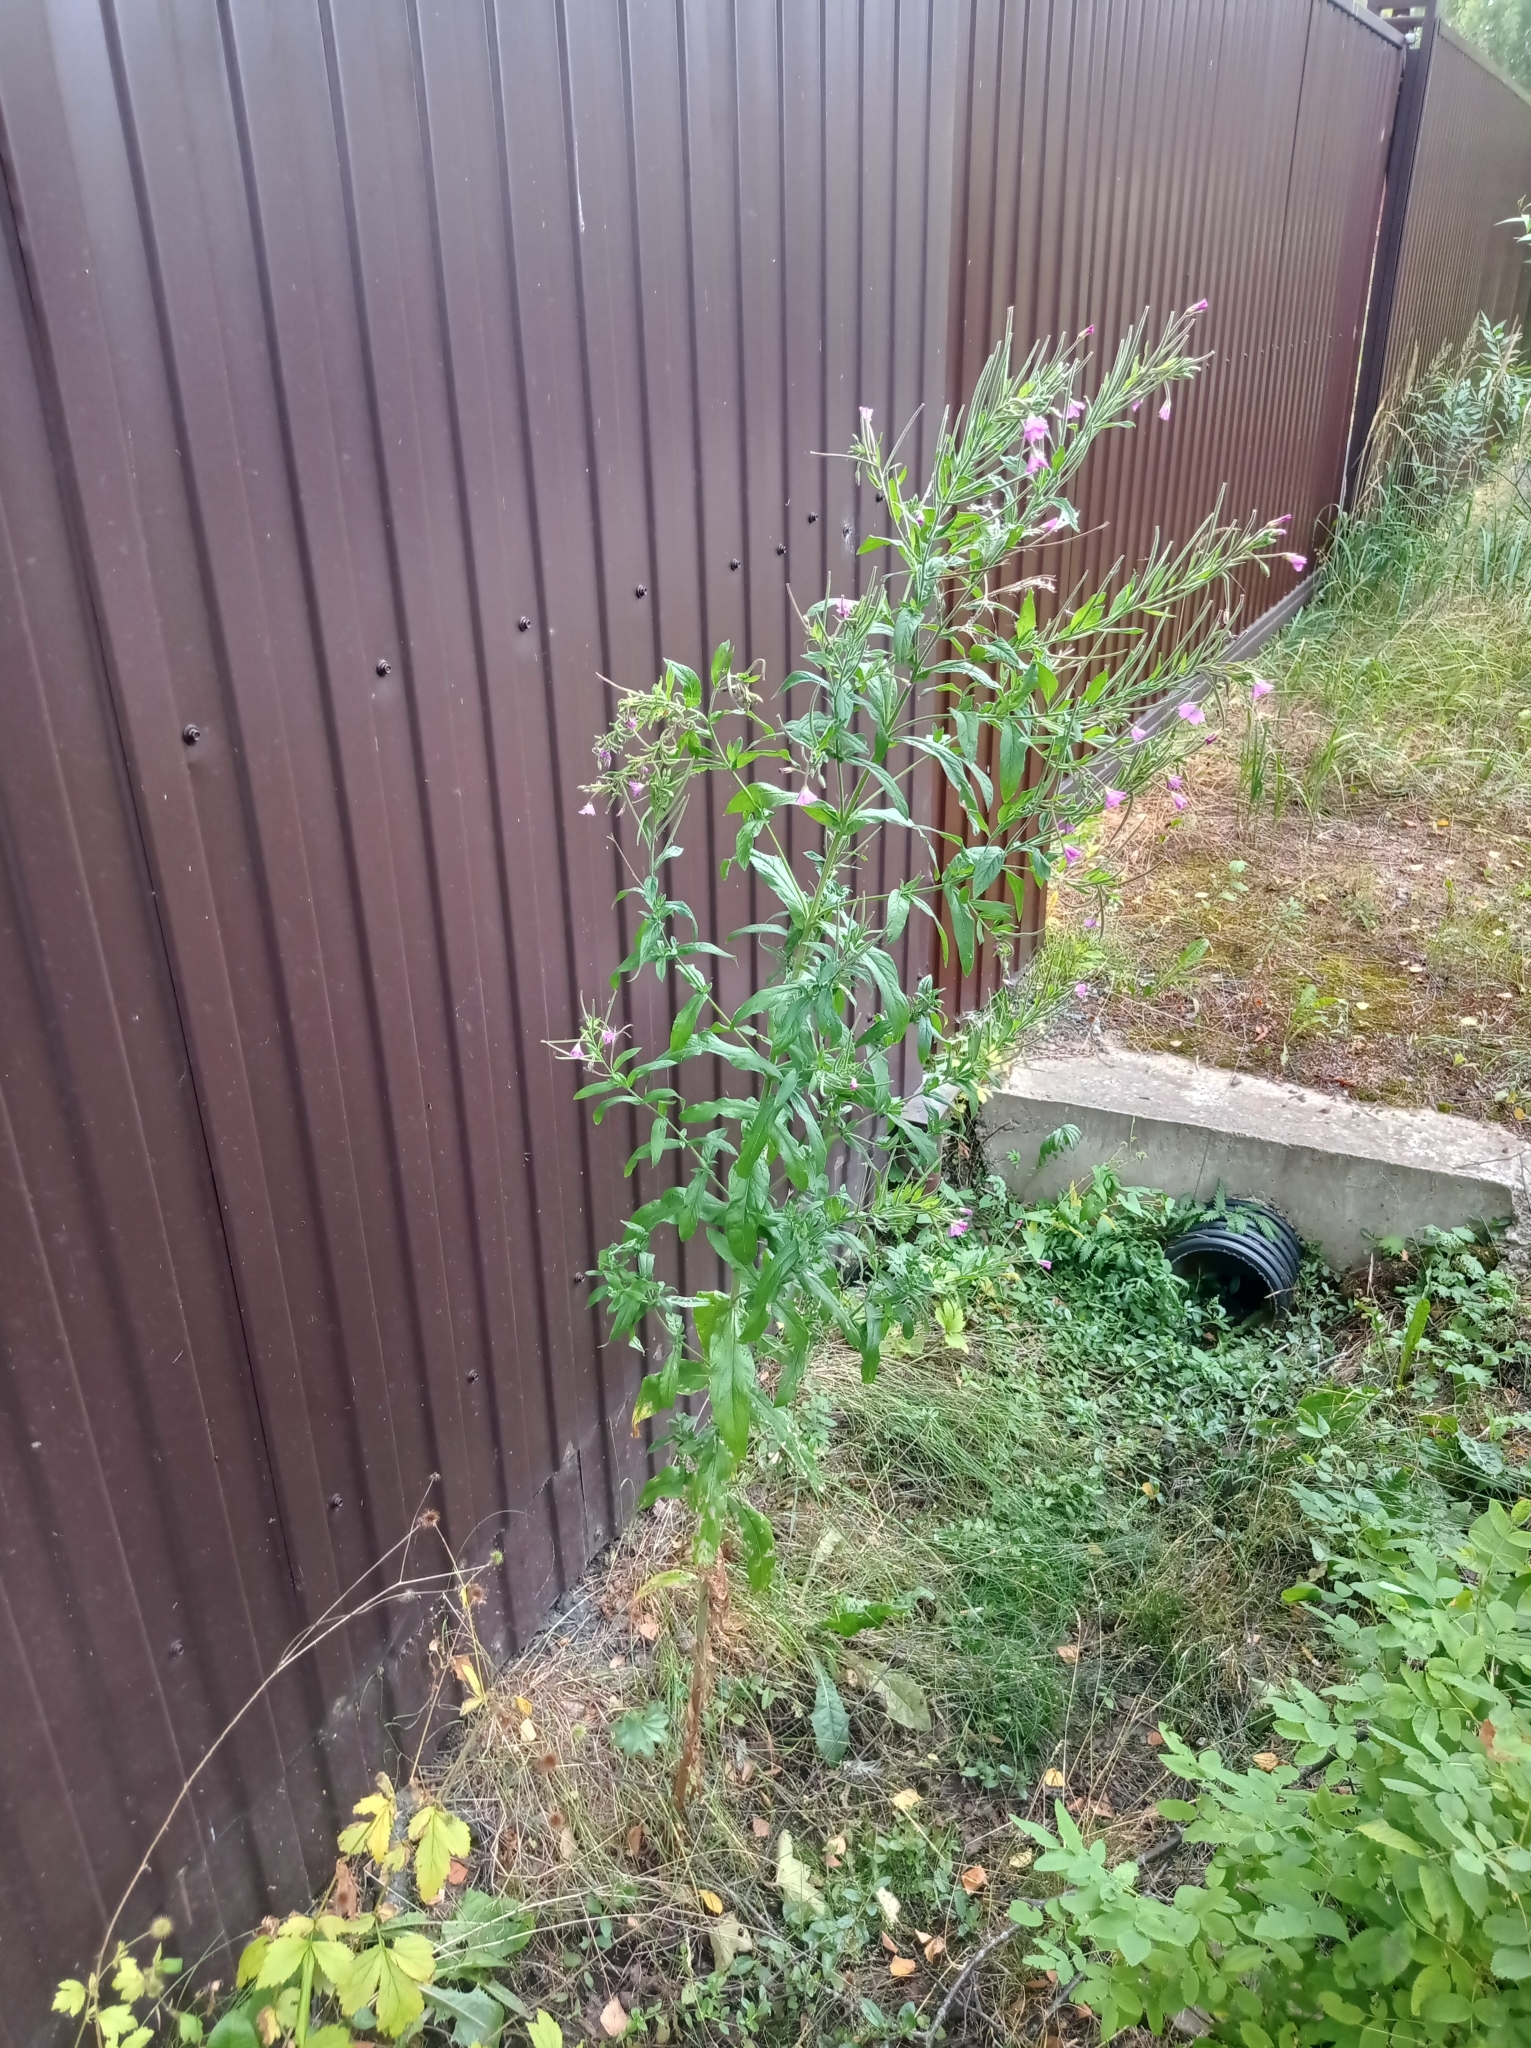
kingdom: Plantae
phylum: Tracheophyta
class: Magnoliopsida
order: Myrtales
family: Onagraceae
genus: Epilobium
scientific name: Epilobium hirsutum
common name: Great willowherb
